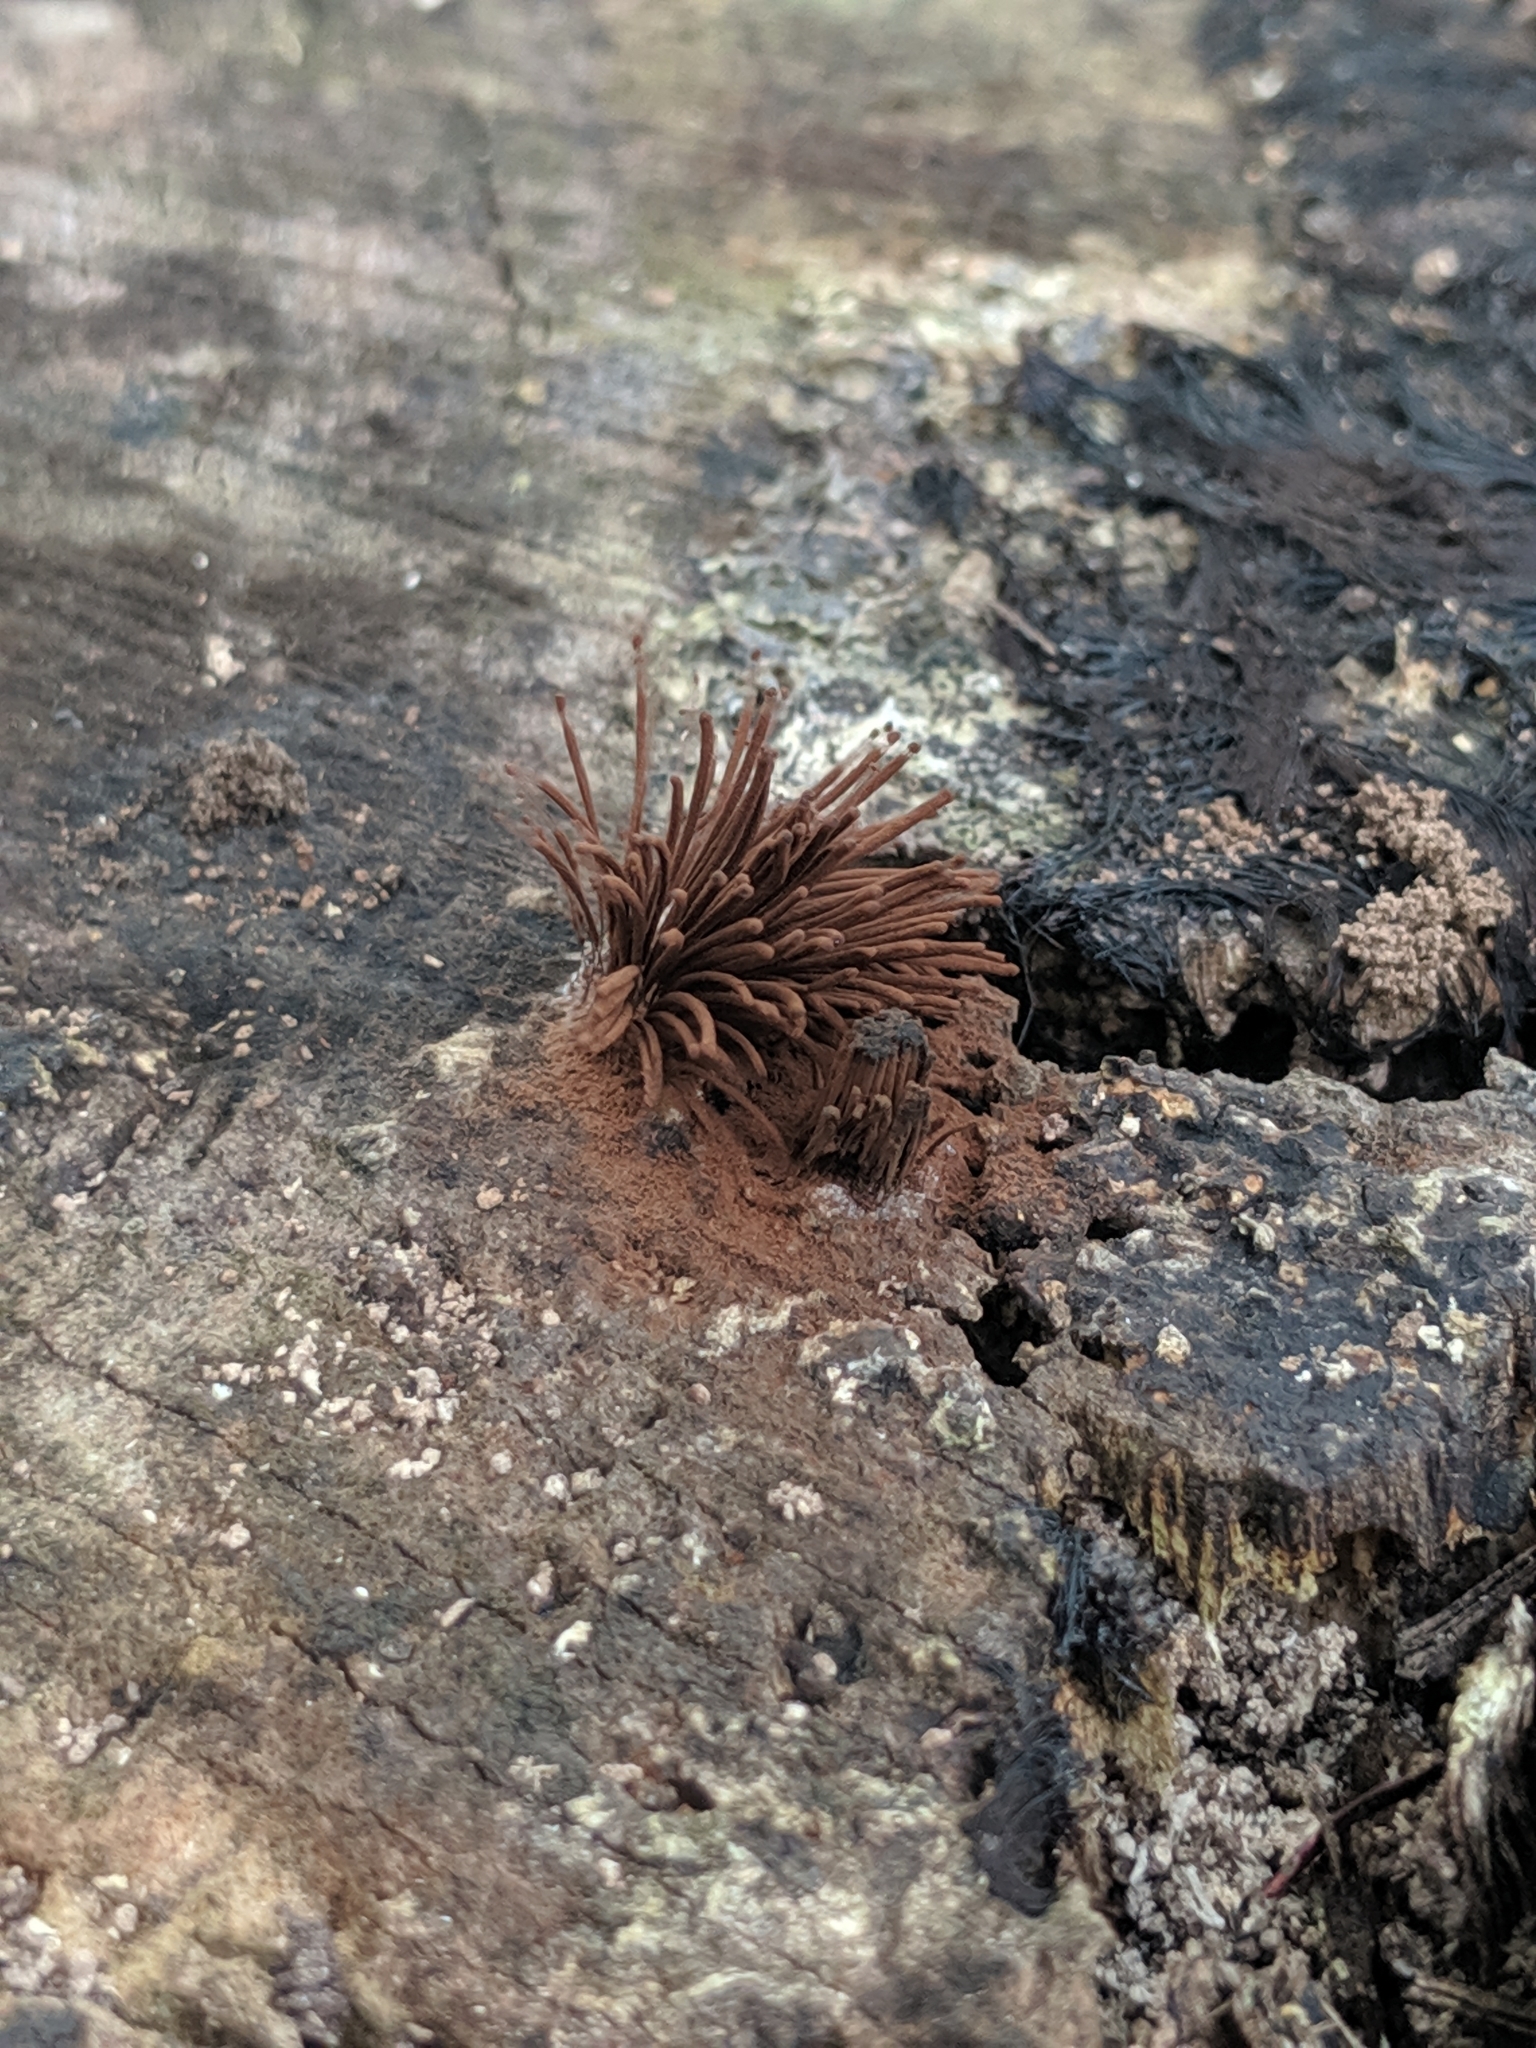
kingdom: Protozoa
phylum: Mycetozoa
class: Myxomycetes
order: Stemonitidales
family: Stemonitidaceae
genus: Stemonitis
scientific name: Stemonitis axifera
